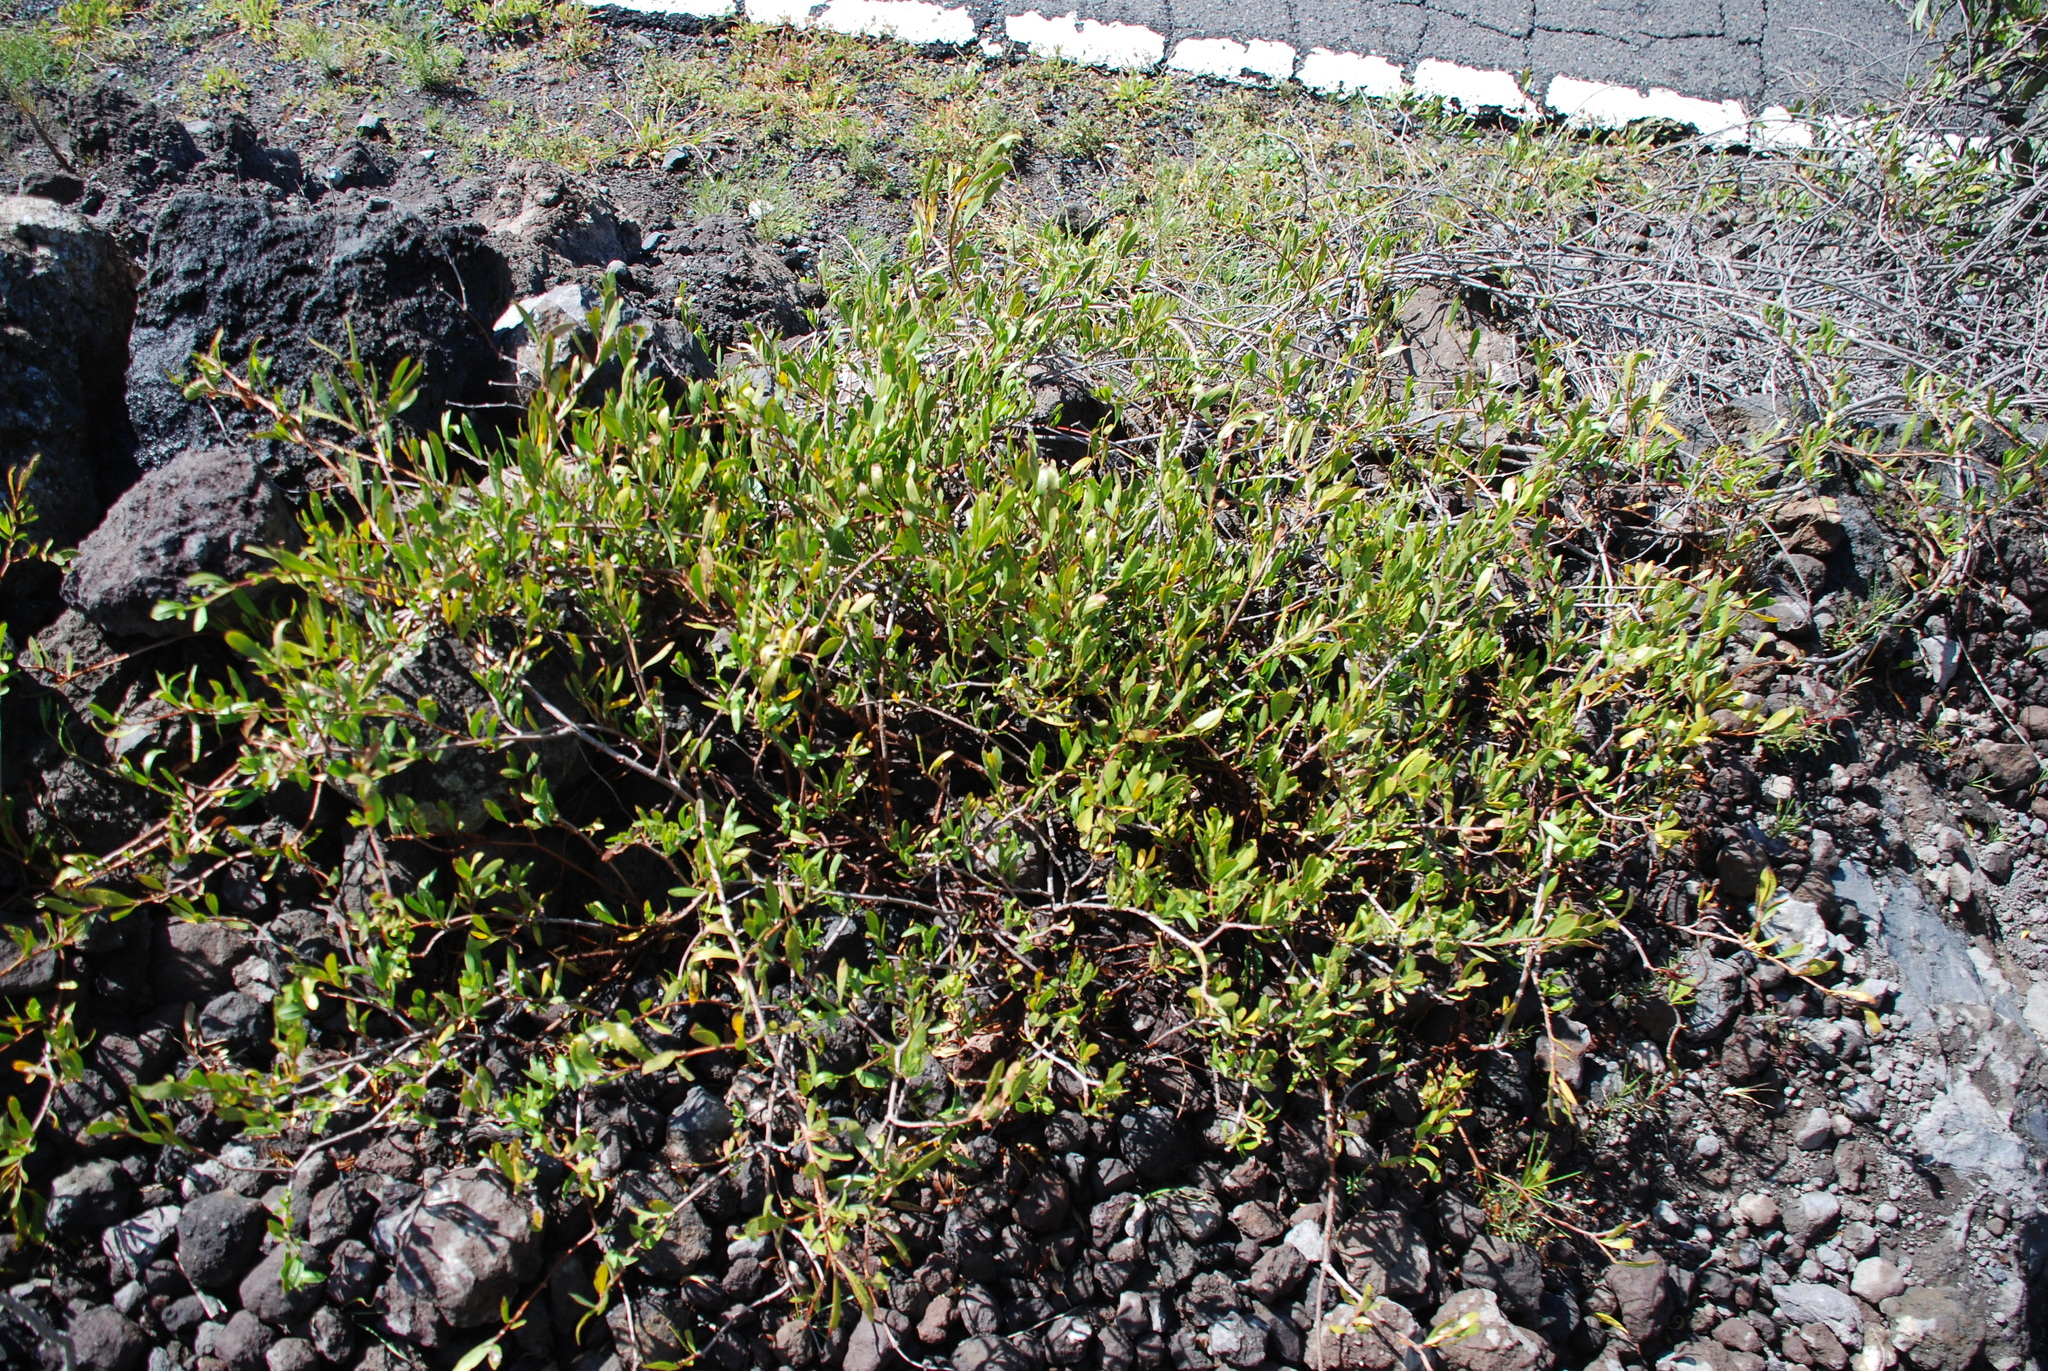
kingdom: Plantae
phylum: Tracheophyta
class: Magnoliopsida
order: Gentianales
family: Apocynaceae
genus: Periploca
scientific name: Periploca laevigata
